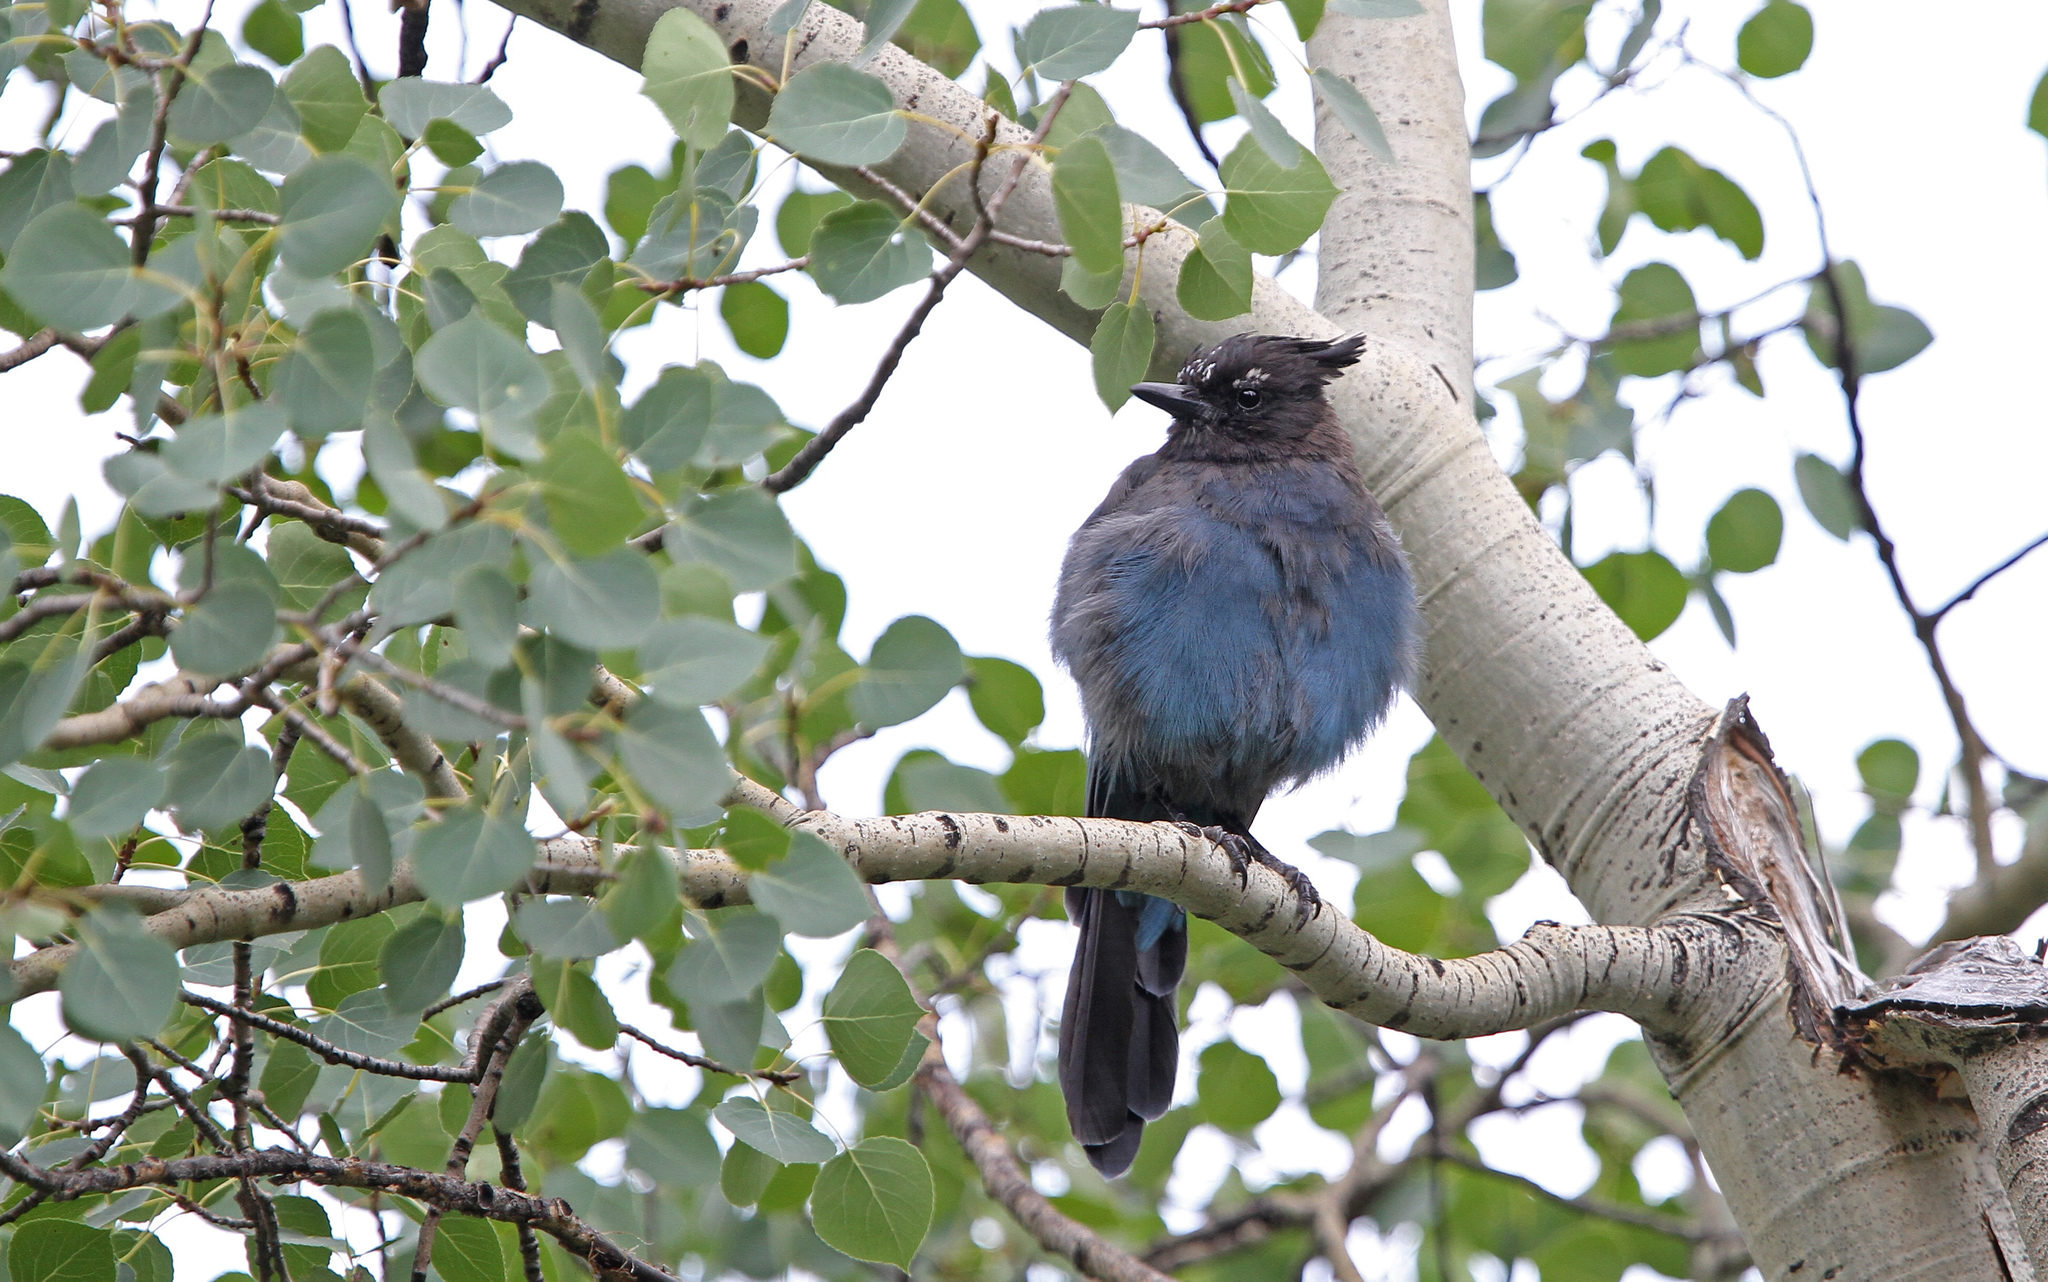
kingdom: Animalia
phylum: Chordata
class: Aves
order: Passeriformes
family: Corvidae
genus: Cyanocitta
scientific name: Cyanocitta stelleri
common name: Steller's jay
